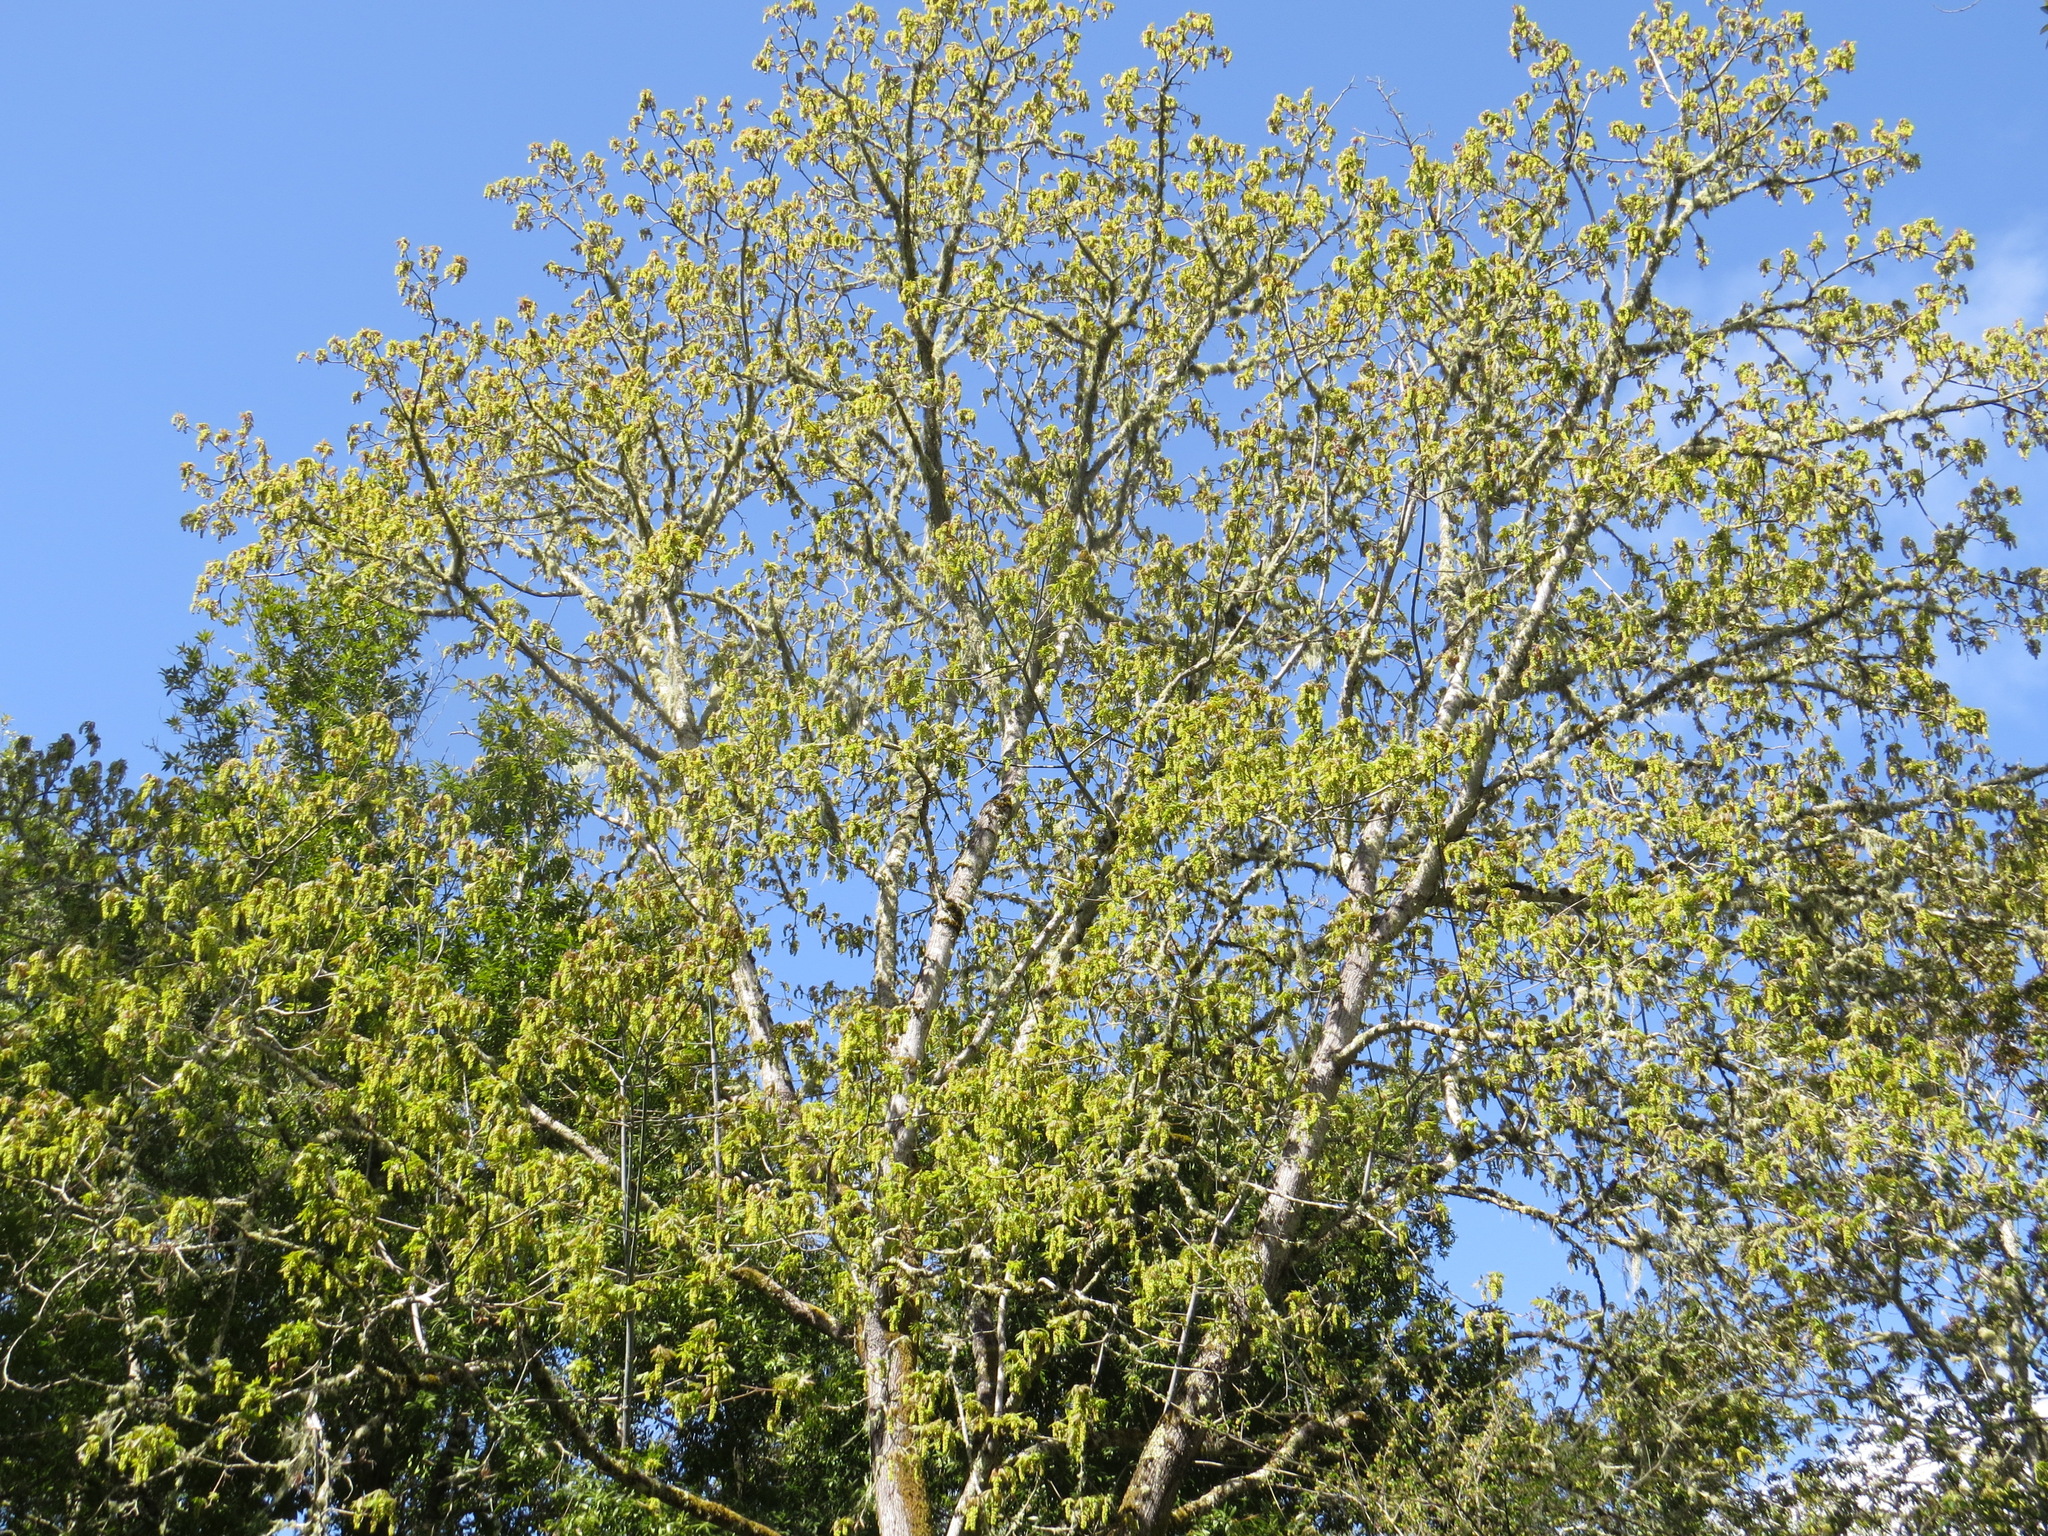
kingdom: Plantae
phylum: Tracheophyta
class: Magnoliopsida
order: Sapindales
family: Sapindaceae
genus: Acer
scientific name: Acer macrophyllum
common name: Oregon maple
